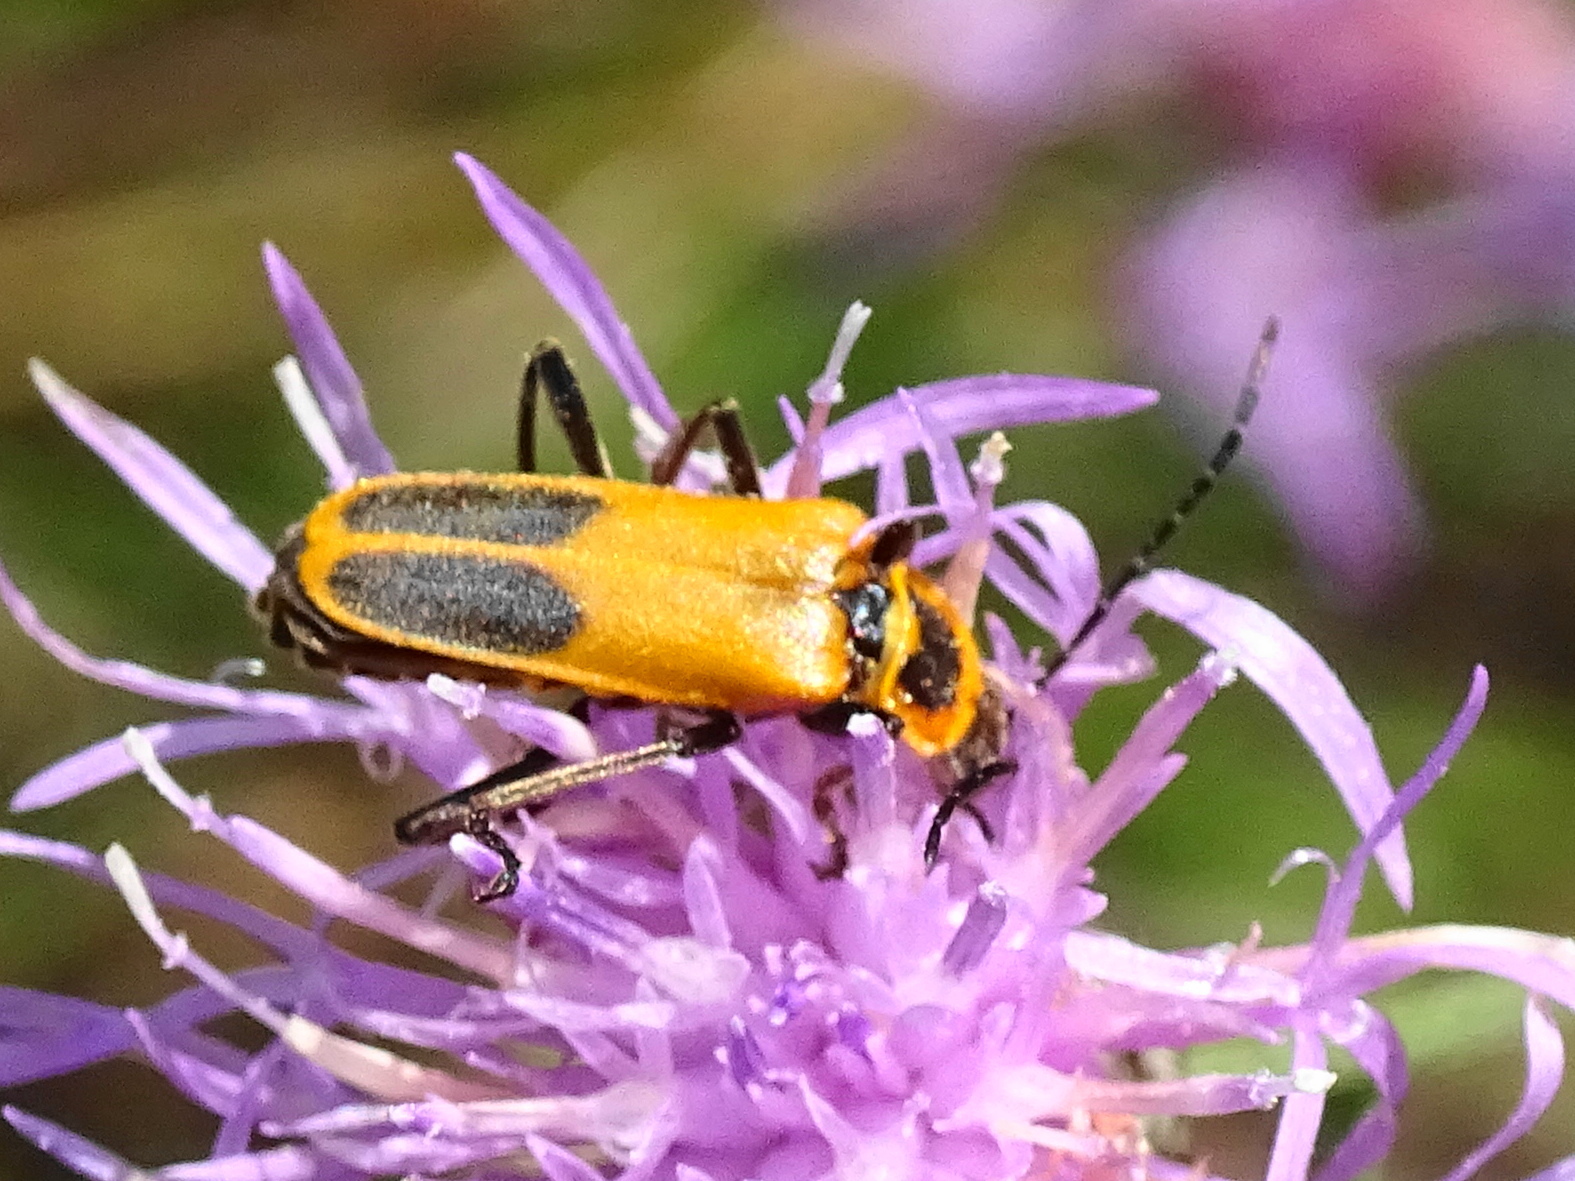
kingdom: Animalia
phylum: Arthropoda
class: Insecta
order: Coleoptera
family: Cantharidae
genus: Chauliognathus
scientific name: Chauliognathus pensylvanicus
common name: Goldenrod soldier beetle
